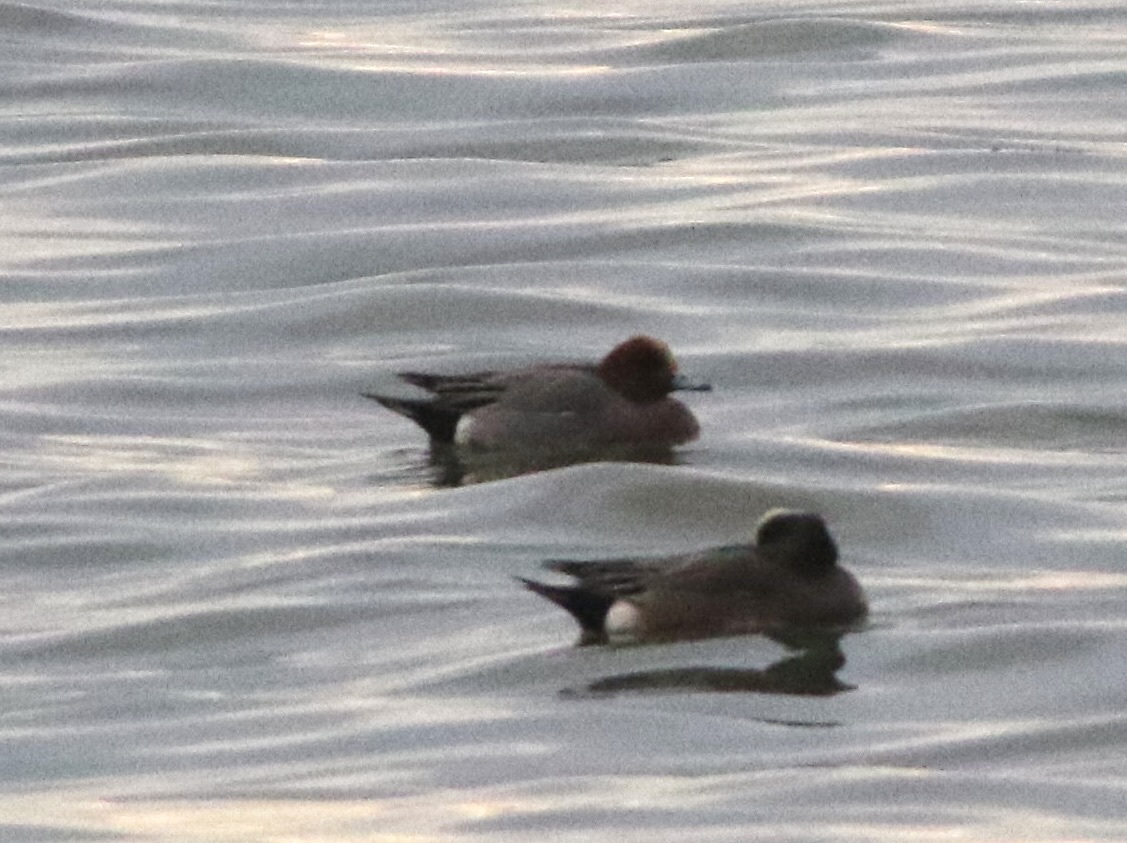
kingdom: Animalia
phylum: Chordata
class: Aves
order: Anseriformes
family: Anatidae
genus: Mareca
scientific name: Mareca penelope
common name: Eurasian wigeon
